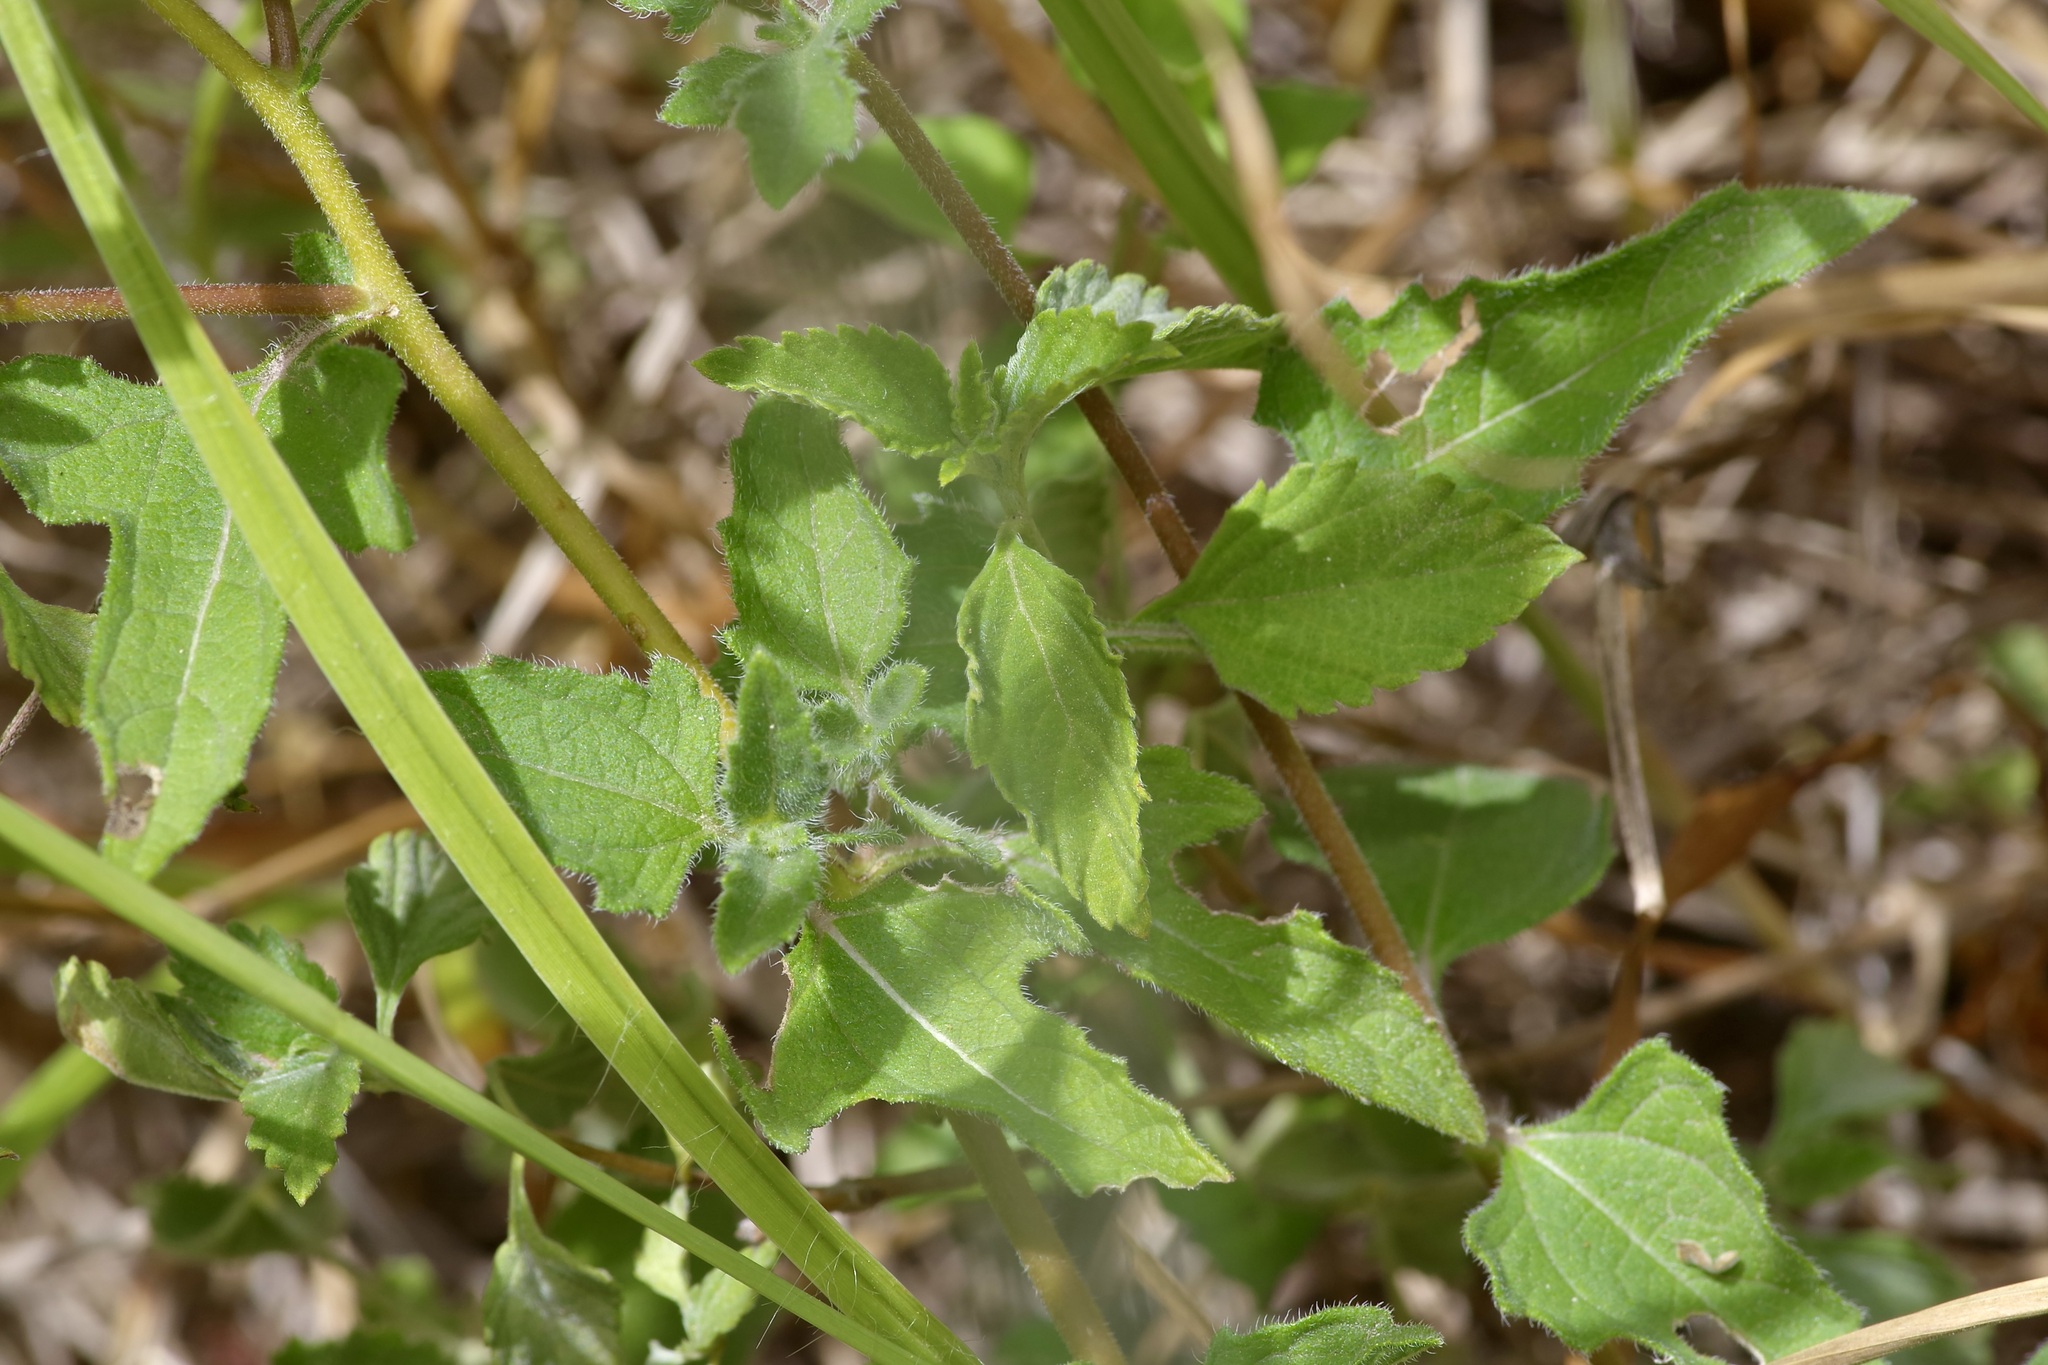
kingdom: Plantae
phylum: Tracheophyta
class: Magnoliopsida
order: Asterales
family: Asteraceae
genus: Simsia
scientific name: Simsia calva
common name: Awnless bush-sunflower
